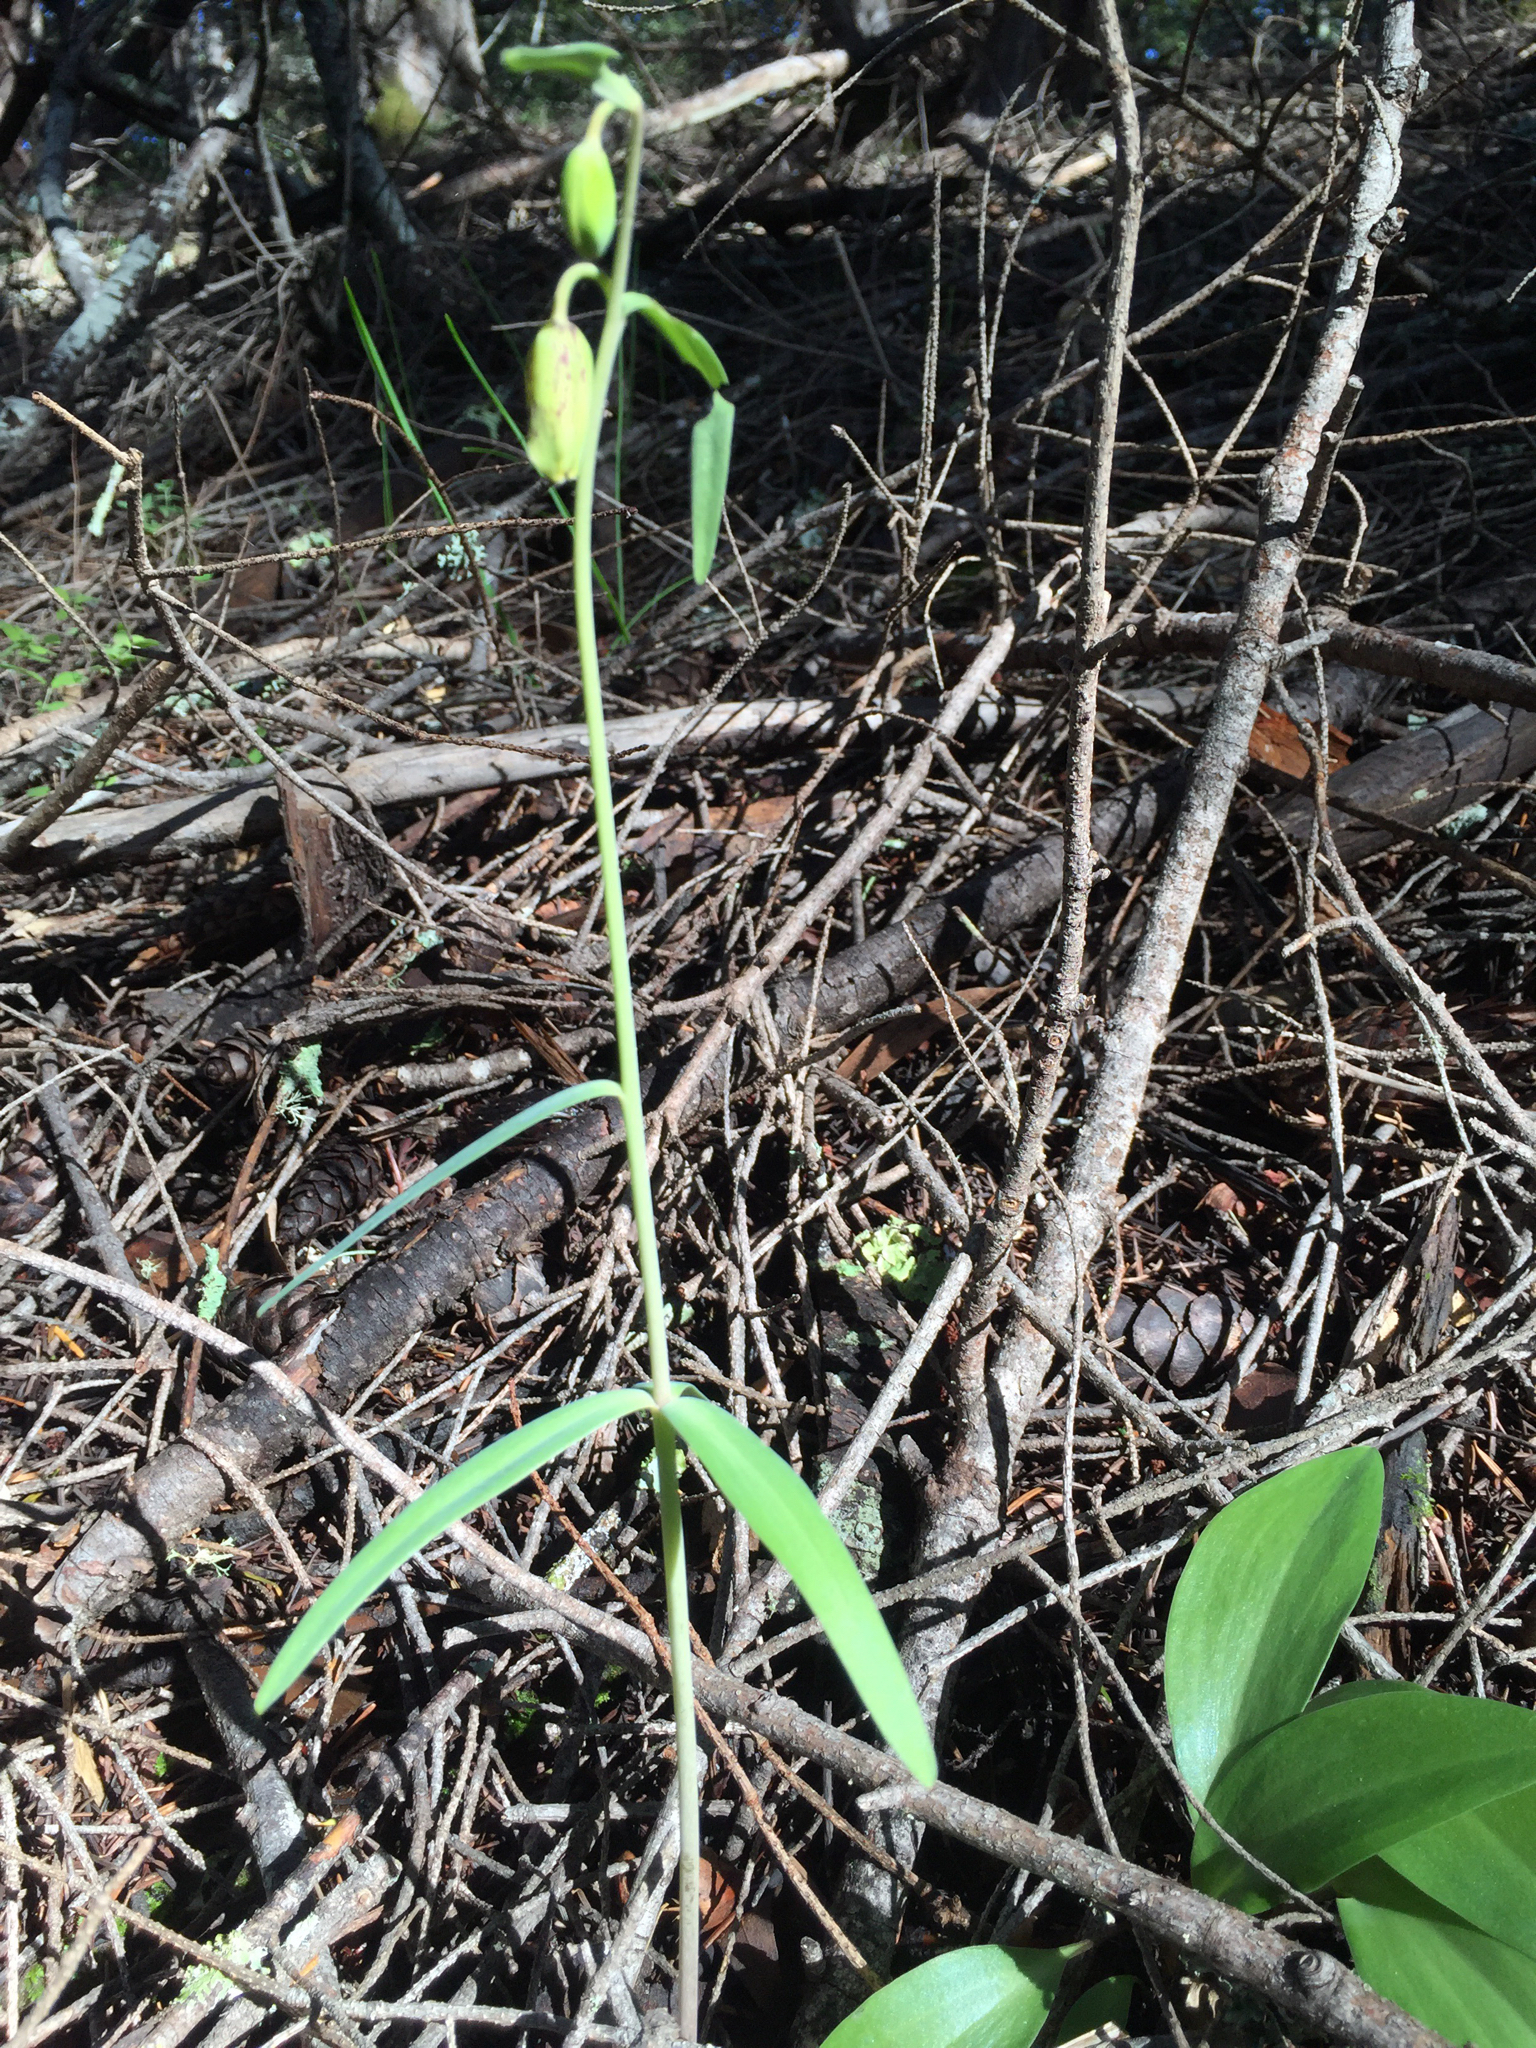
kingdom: Plantae
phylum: Tracheophyta
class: Liliopsida
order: Liliales
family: Liliaceae
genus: Fritillaria
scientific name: Fritillaria affinis
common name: Ojai fritillary
